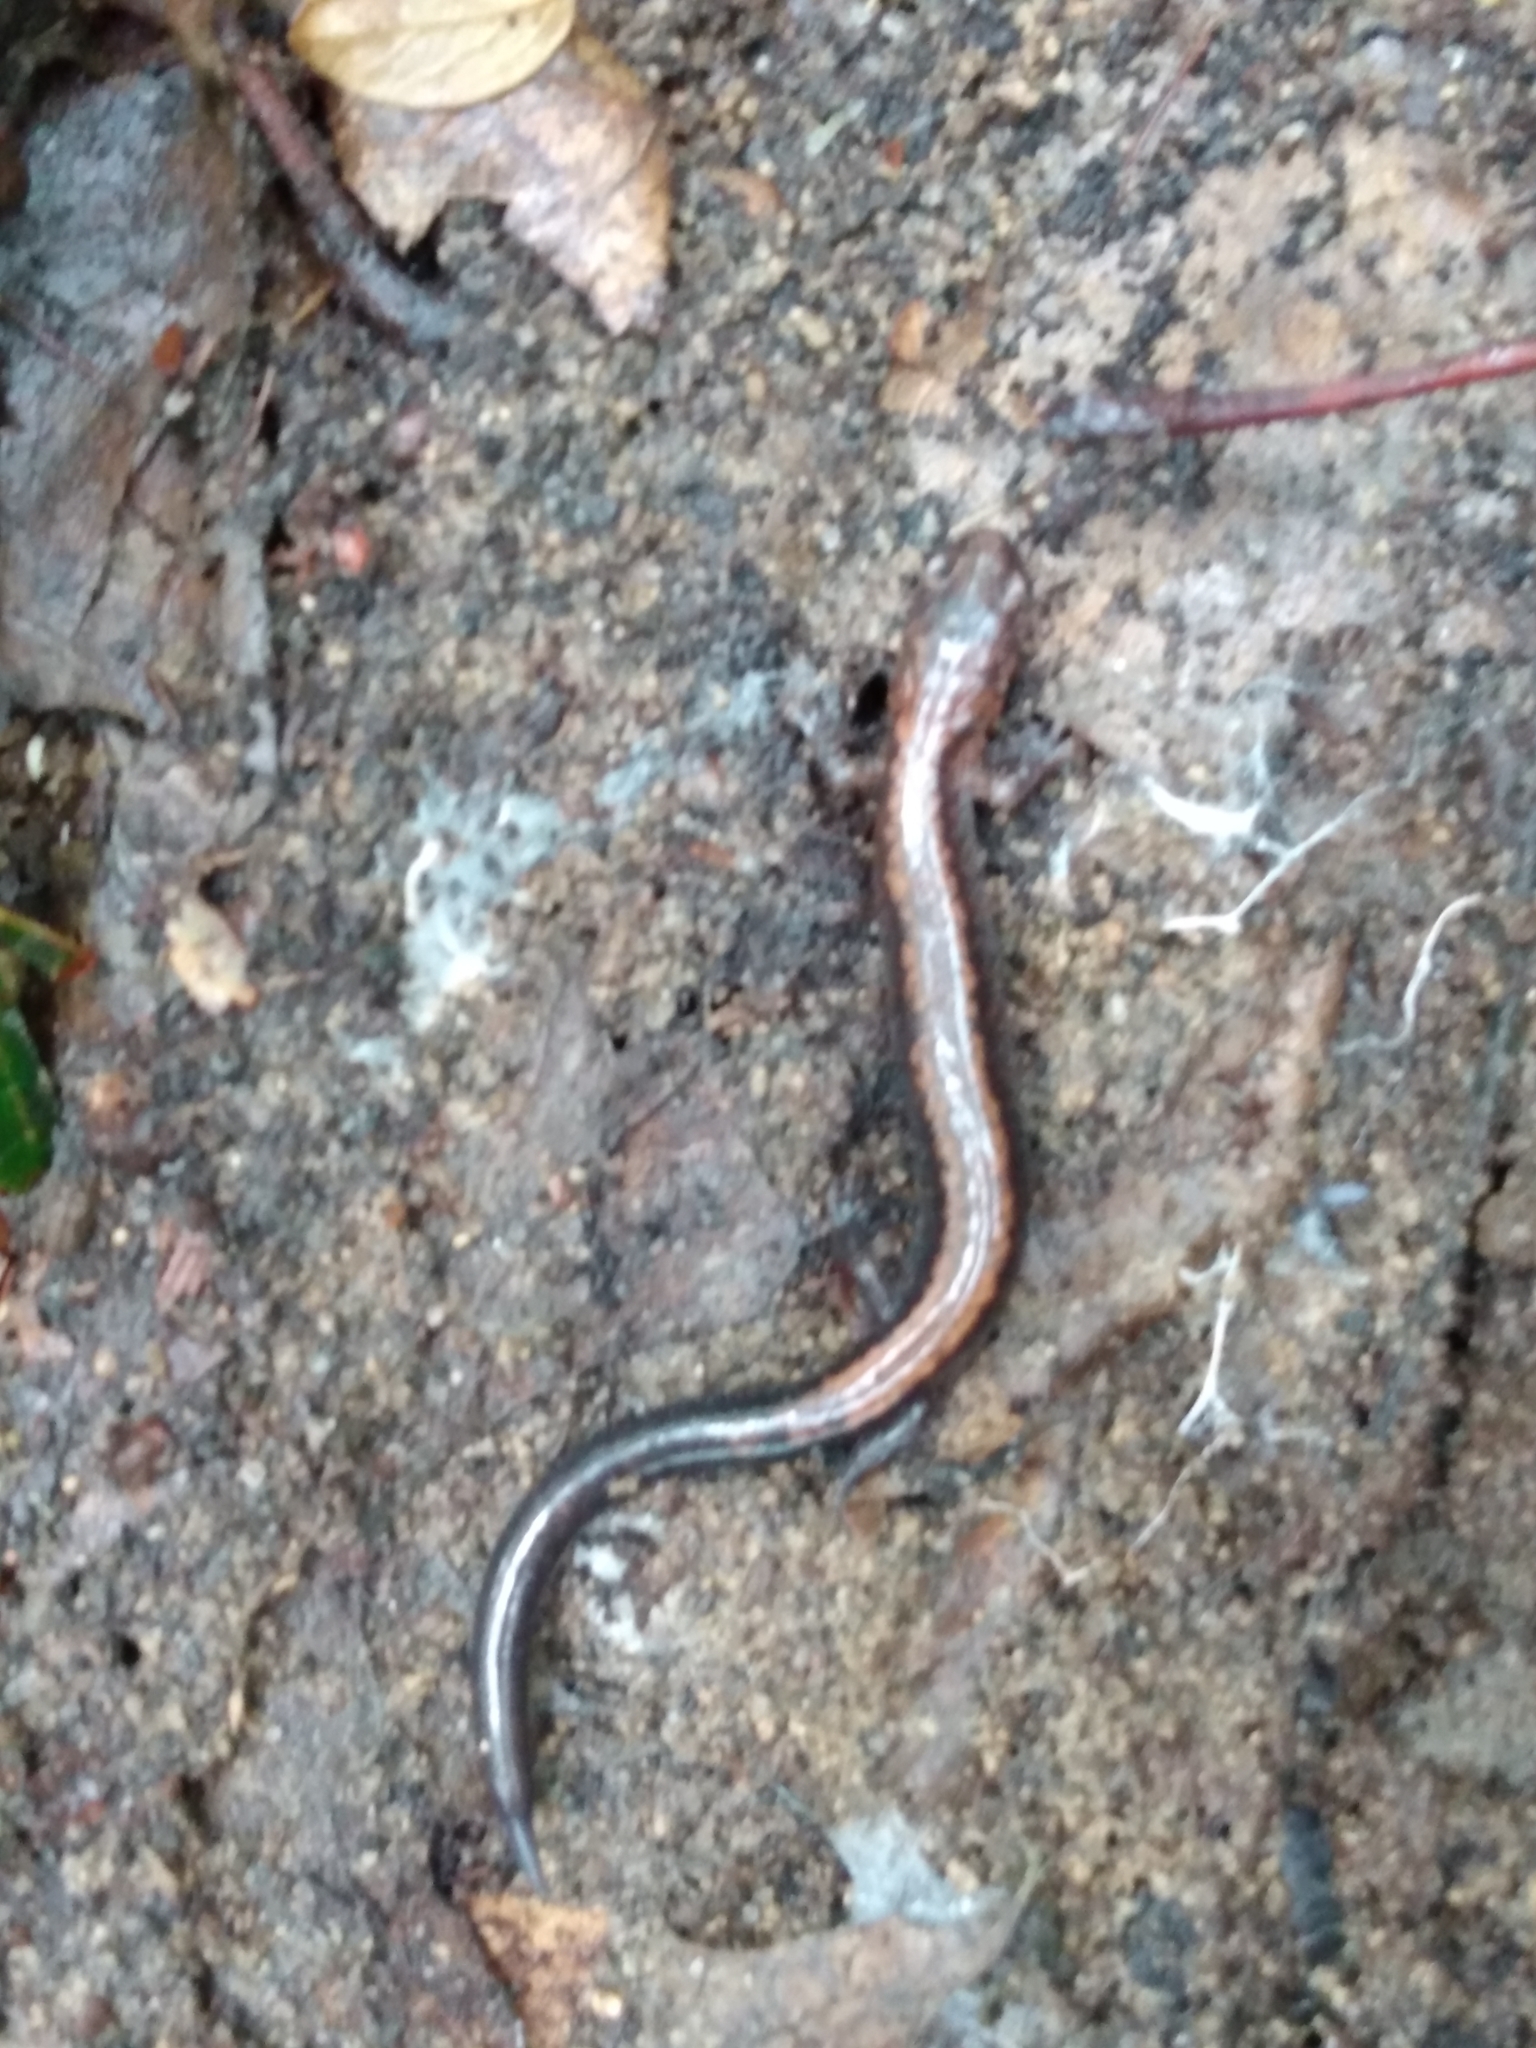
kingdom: Animalia
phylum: Chordata
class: Amphibia
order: Caudata
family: Plethodontidae
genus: Plethodon
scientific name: Plethodon cinereus
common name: Redback salamander
